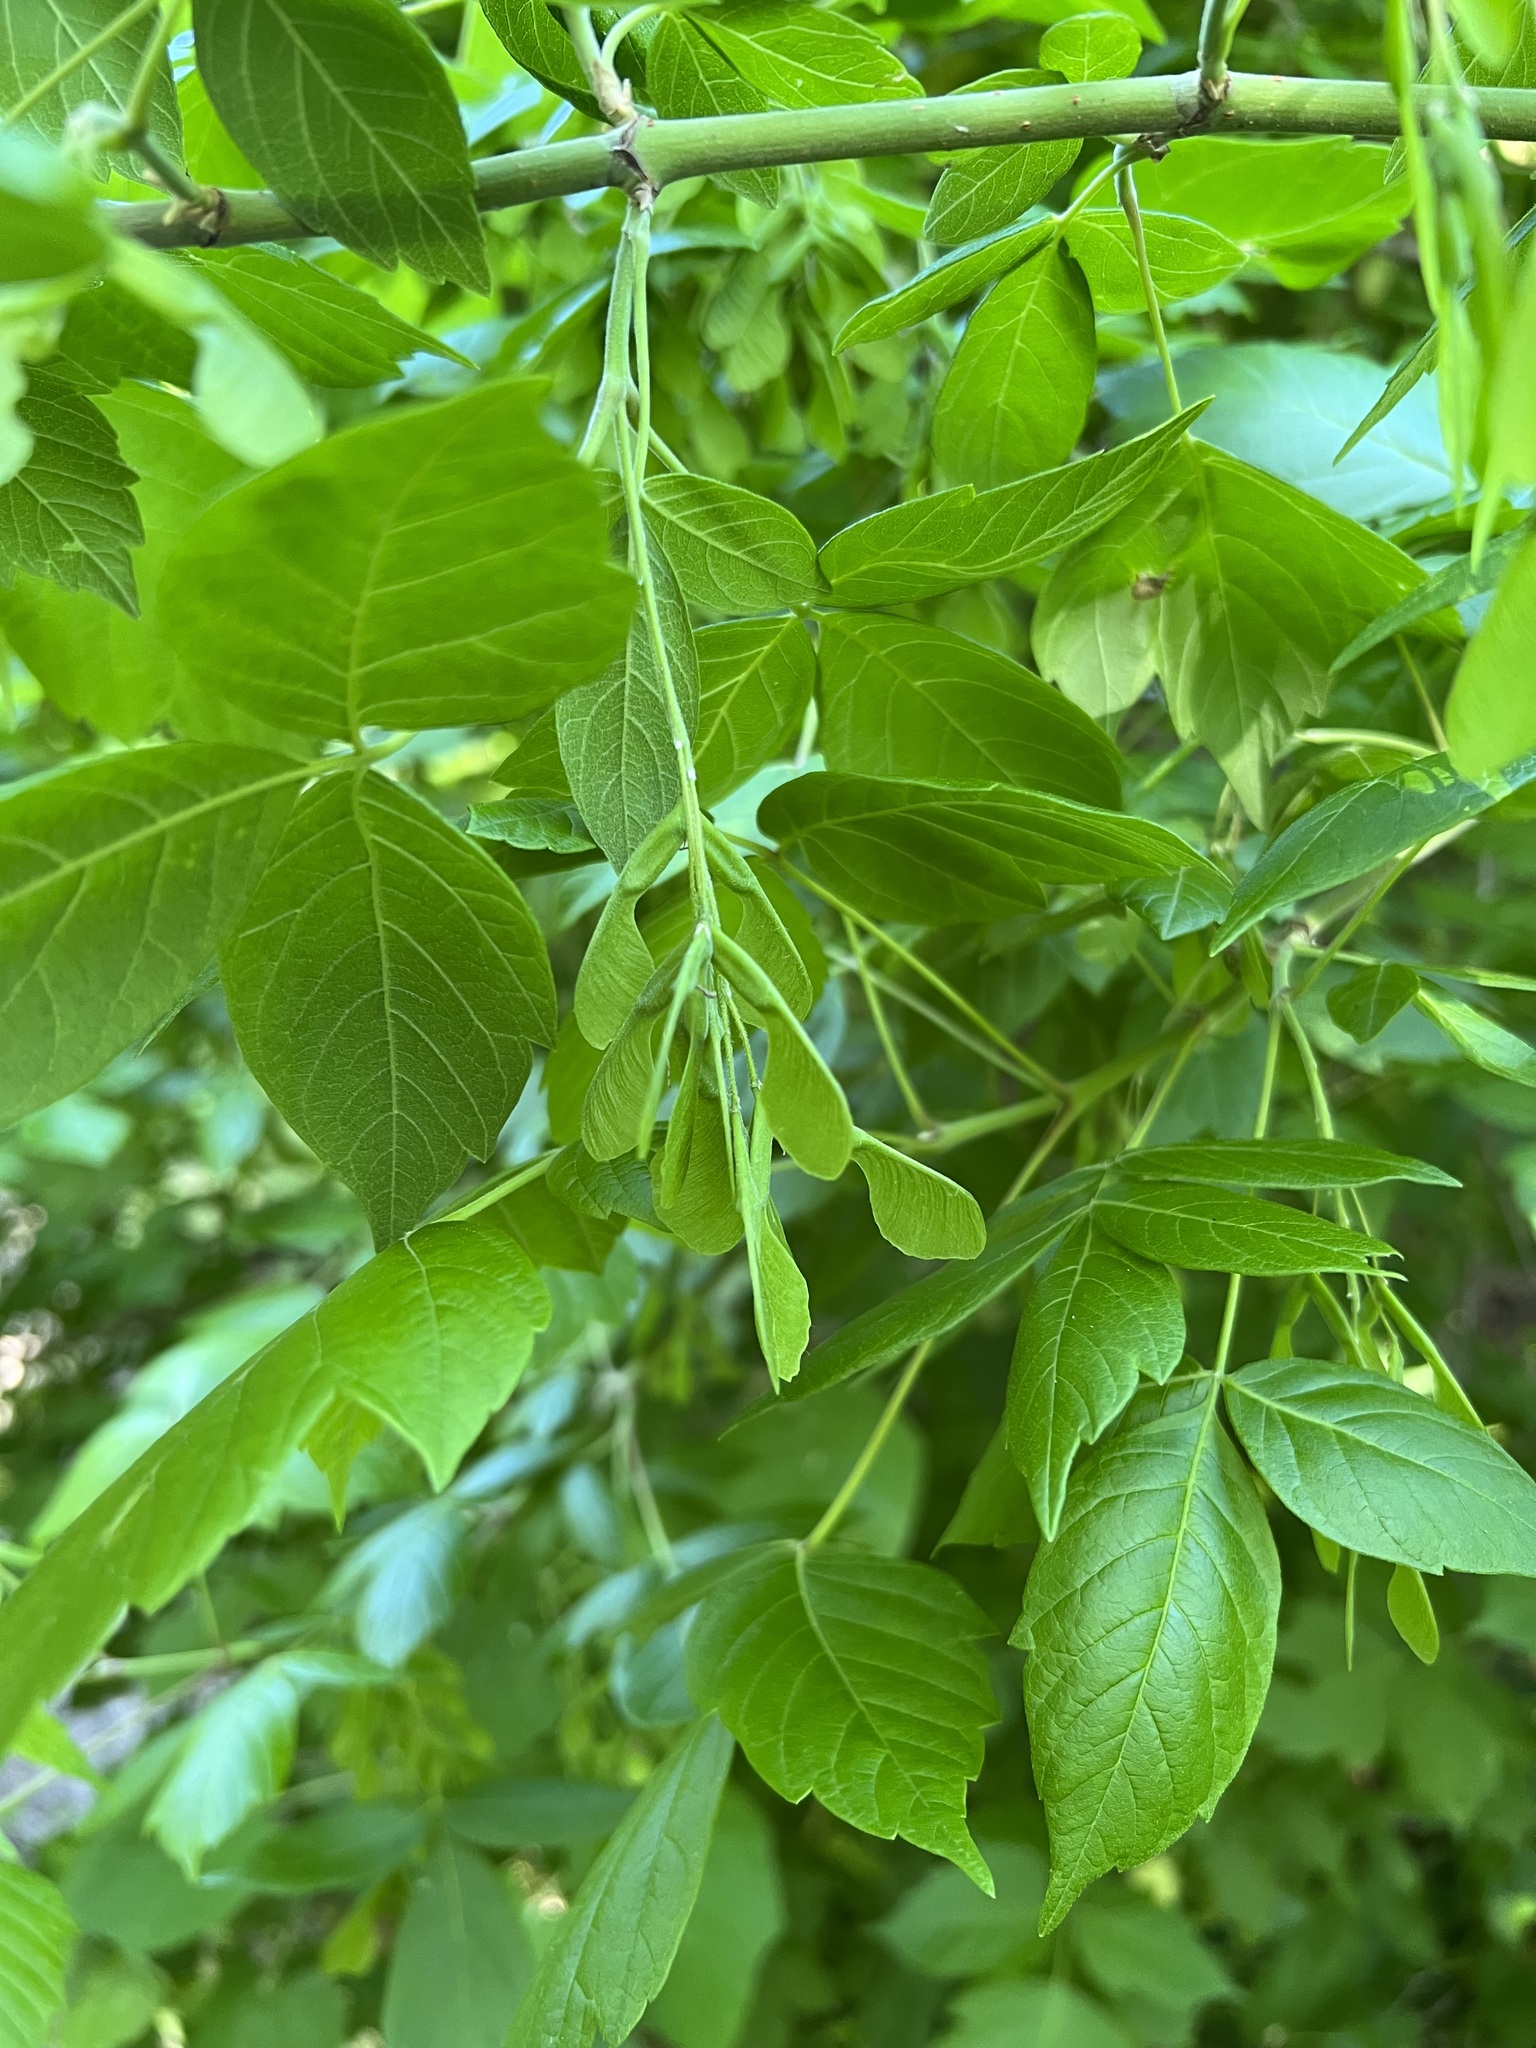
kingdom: Plantae
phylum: Tracheophyta
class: Magnoliopsida
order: Sapindales
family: Sapindaceae
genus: Acer
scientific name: Acer negundo
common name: Ashleaf maple
